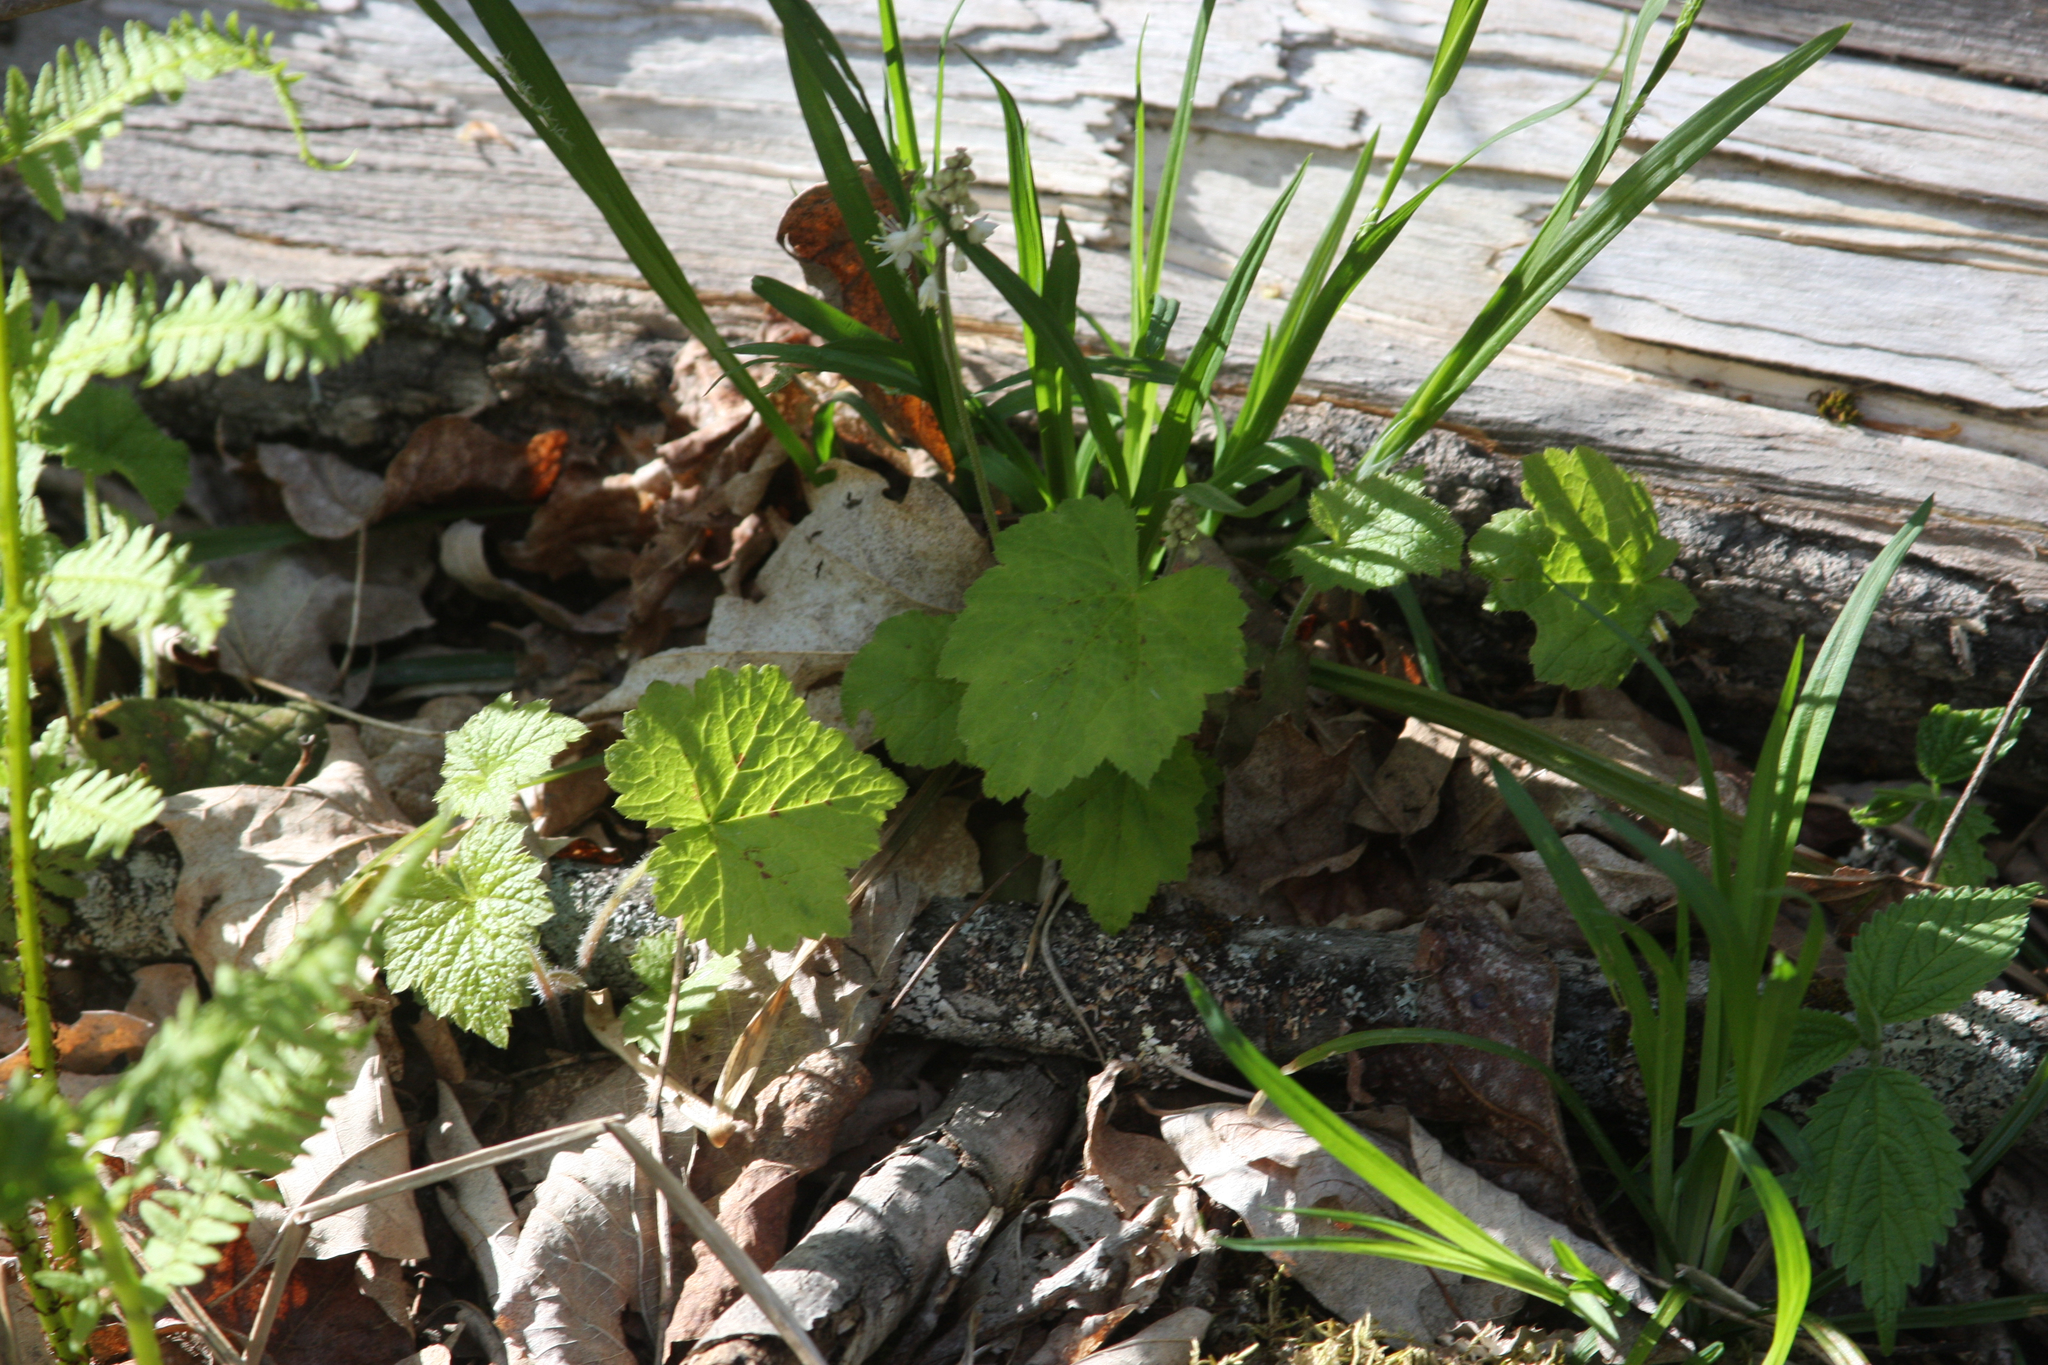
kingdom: Plantae
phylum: Tracheophyta
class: Magnoliopsida
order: Saxifragales
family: Saxifragaceae
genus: Tiarella
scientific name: Tiarella stolonifera
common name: Stoloniferous foamflower
